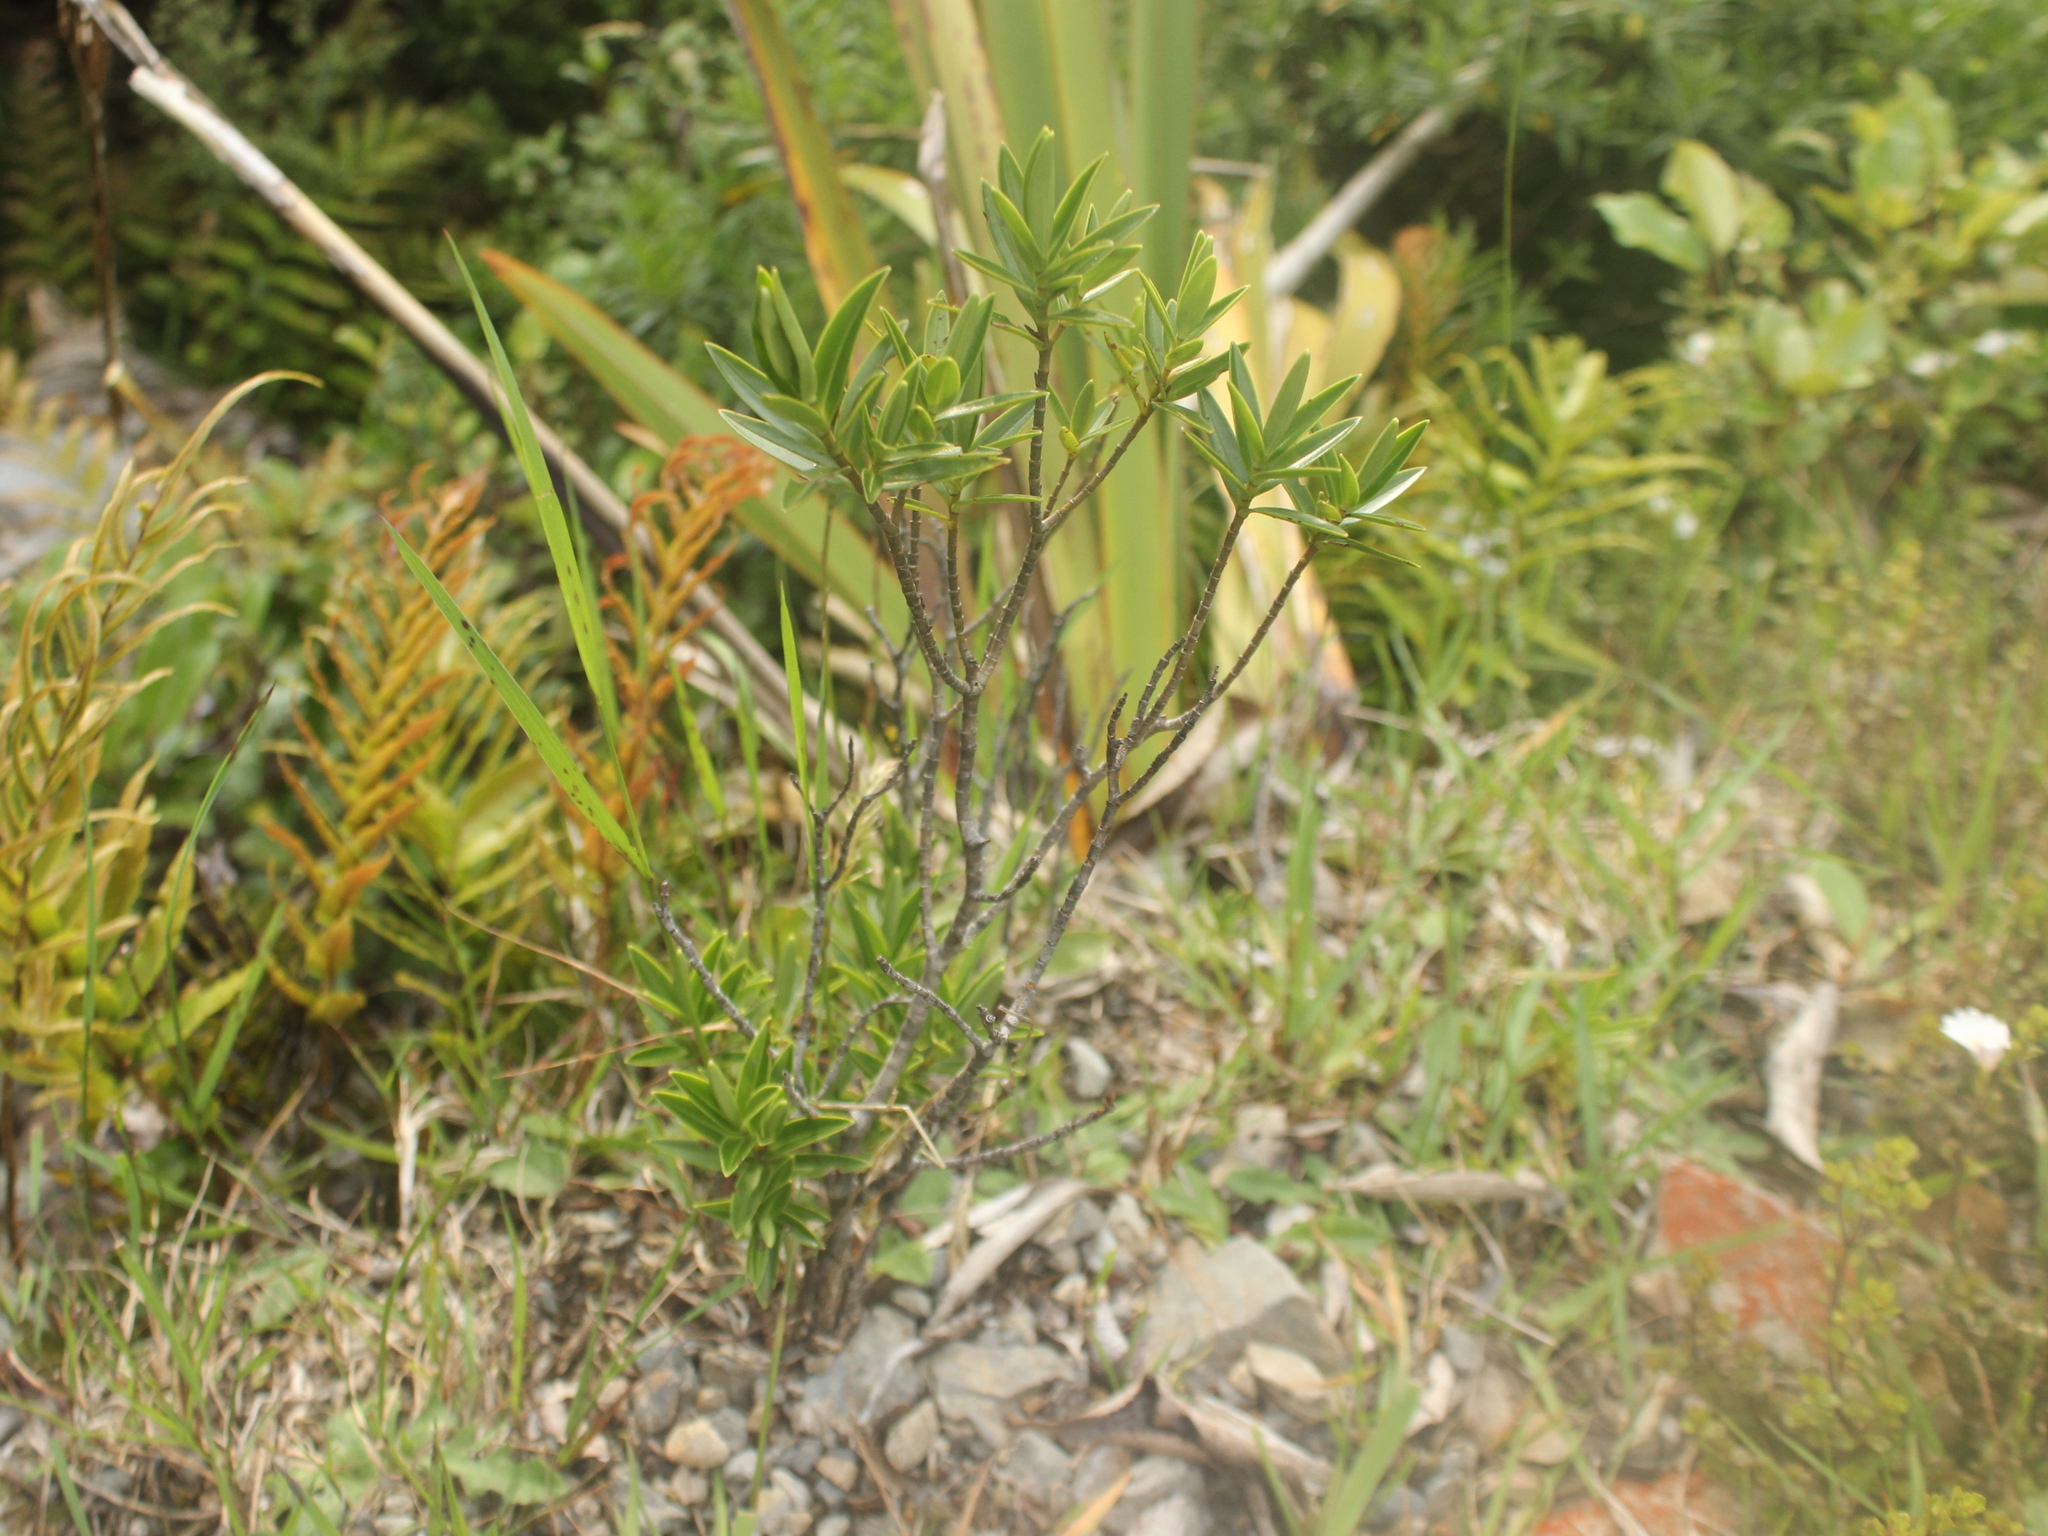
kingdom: Plantae
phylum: Tracheophyta
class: Magnoliopsida
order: Lamiales
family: Plantaginaceae
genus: Veronica
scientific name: Veronica truncatula
